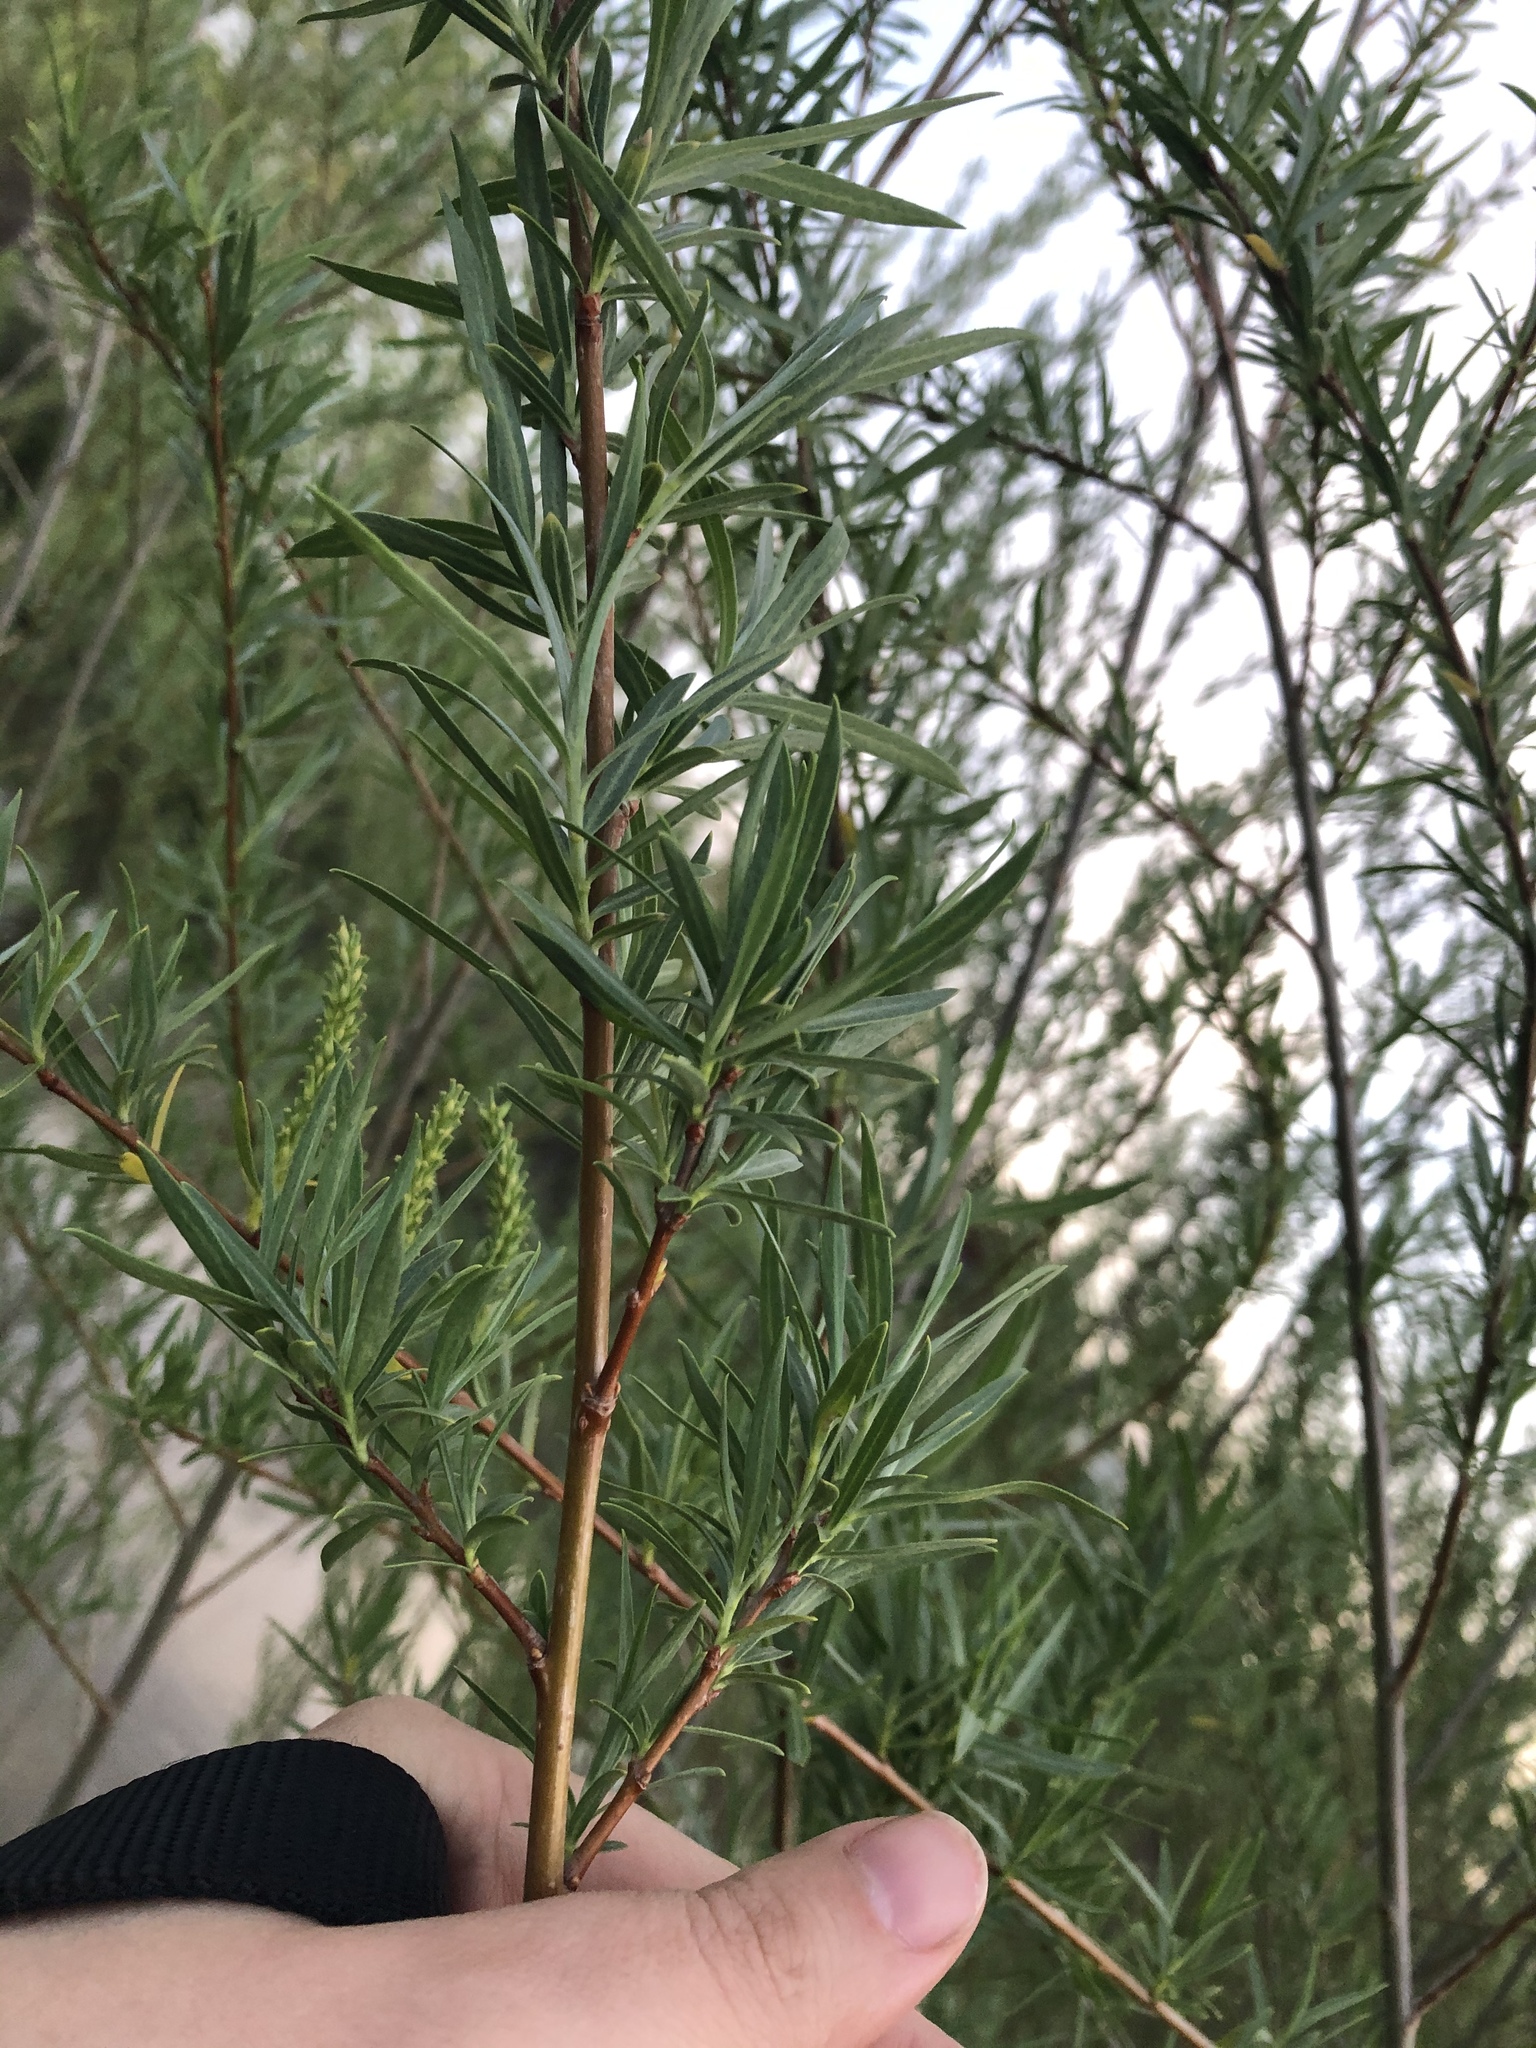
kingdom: Plantae
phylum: Tracheophyta
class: Magnoliopsida
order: Malpighiales
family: Salicaceae
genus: Salix
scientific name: Salix exigua
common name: Coyote willow
